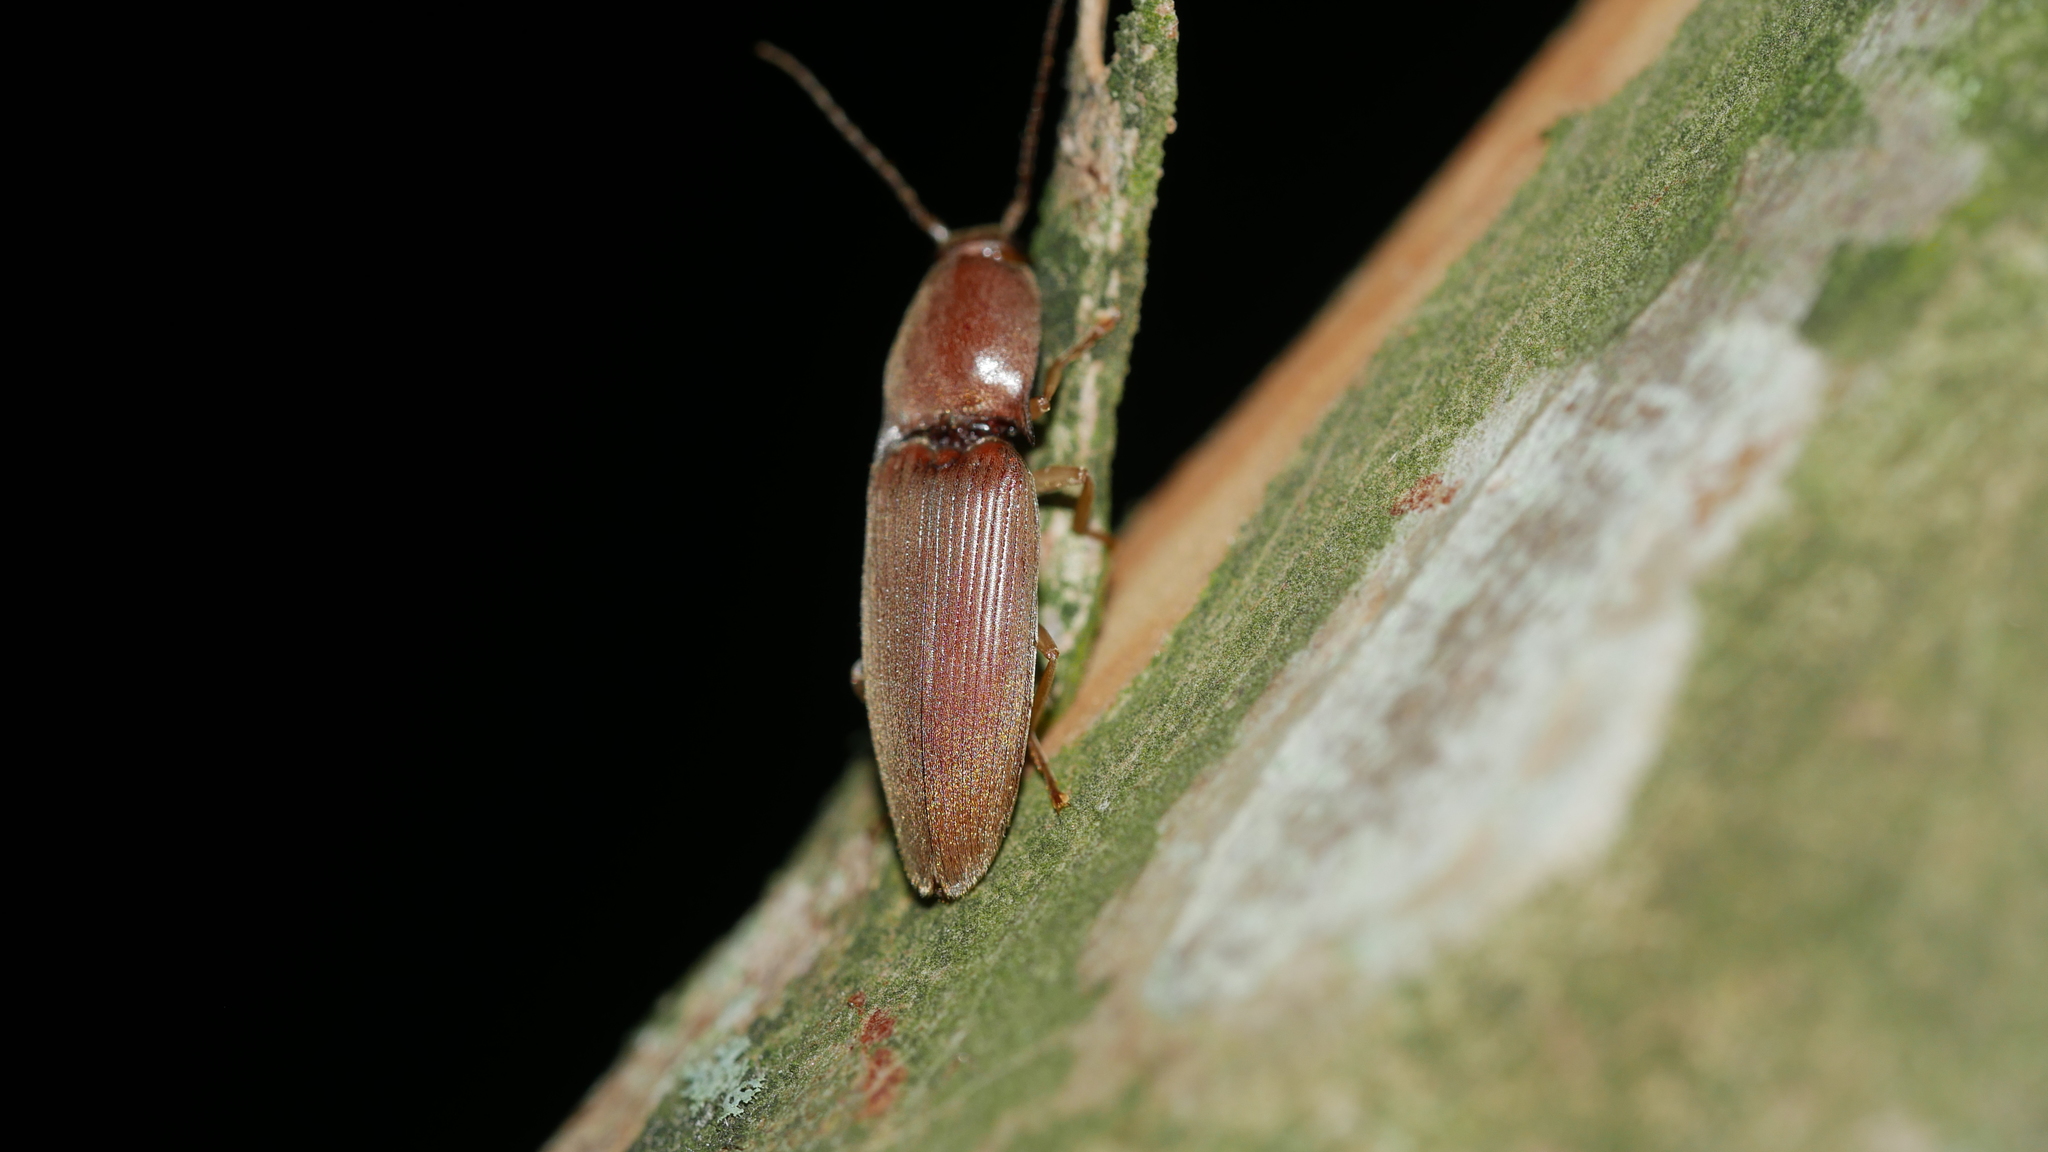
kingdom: Animalia
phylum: Arthropoda
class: Insecta
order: Coleoptera
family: Elateridae
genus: Monocrepidius
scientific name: Monocrepidius lividus
